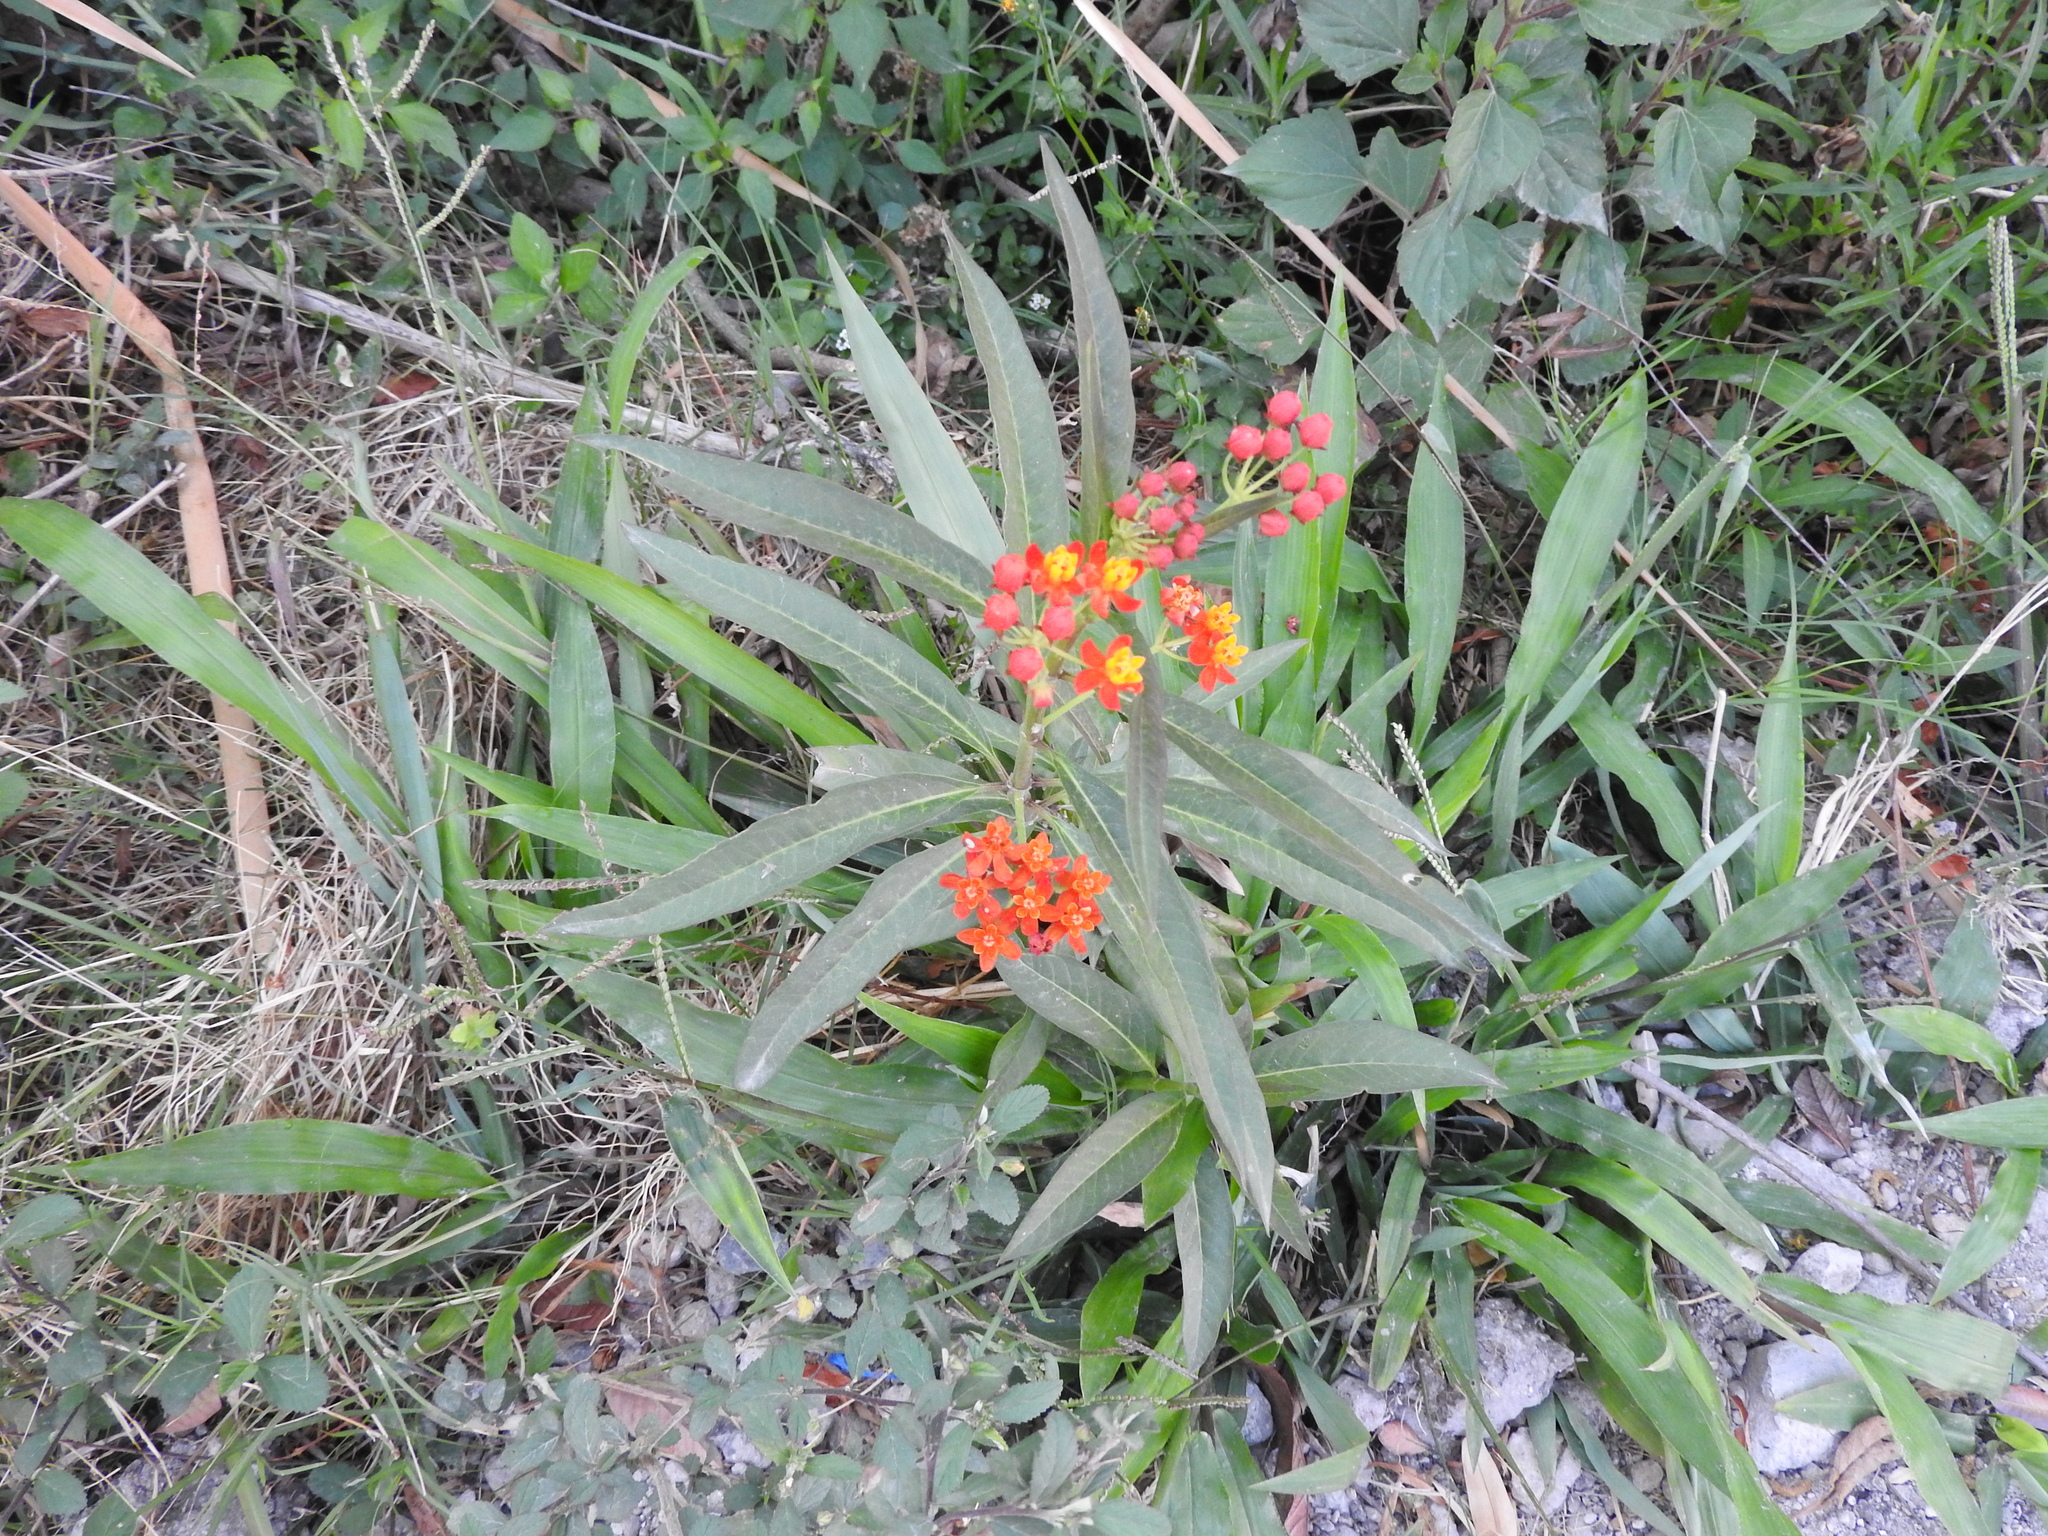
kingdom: Plantae
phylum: Tracheophyta
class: Magnoliopsida
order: Gentianales
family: Apocynaceae
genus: Asclepias
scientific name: Asclepias curassavica
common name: Bloodflower
